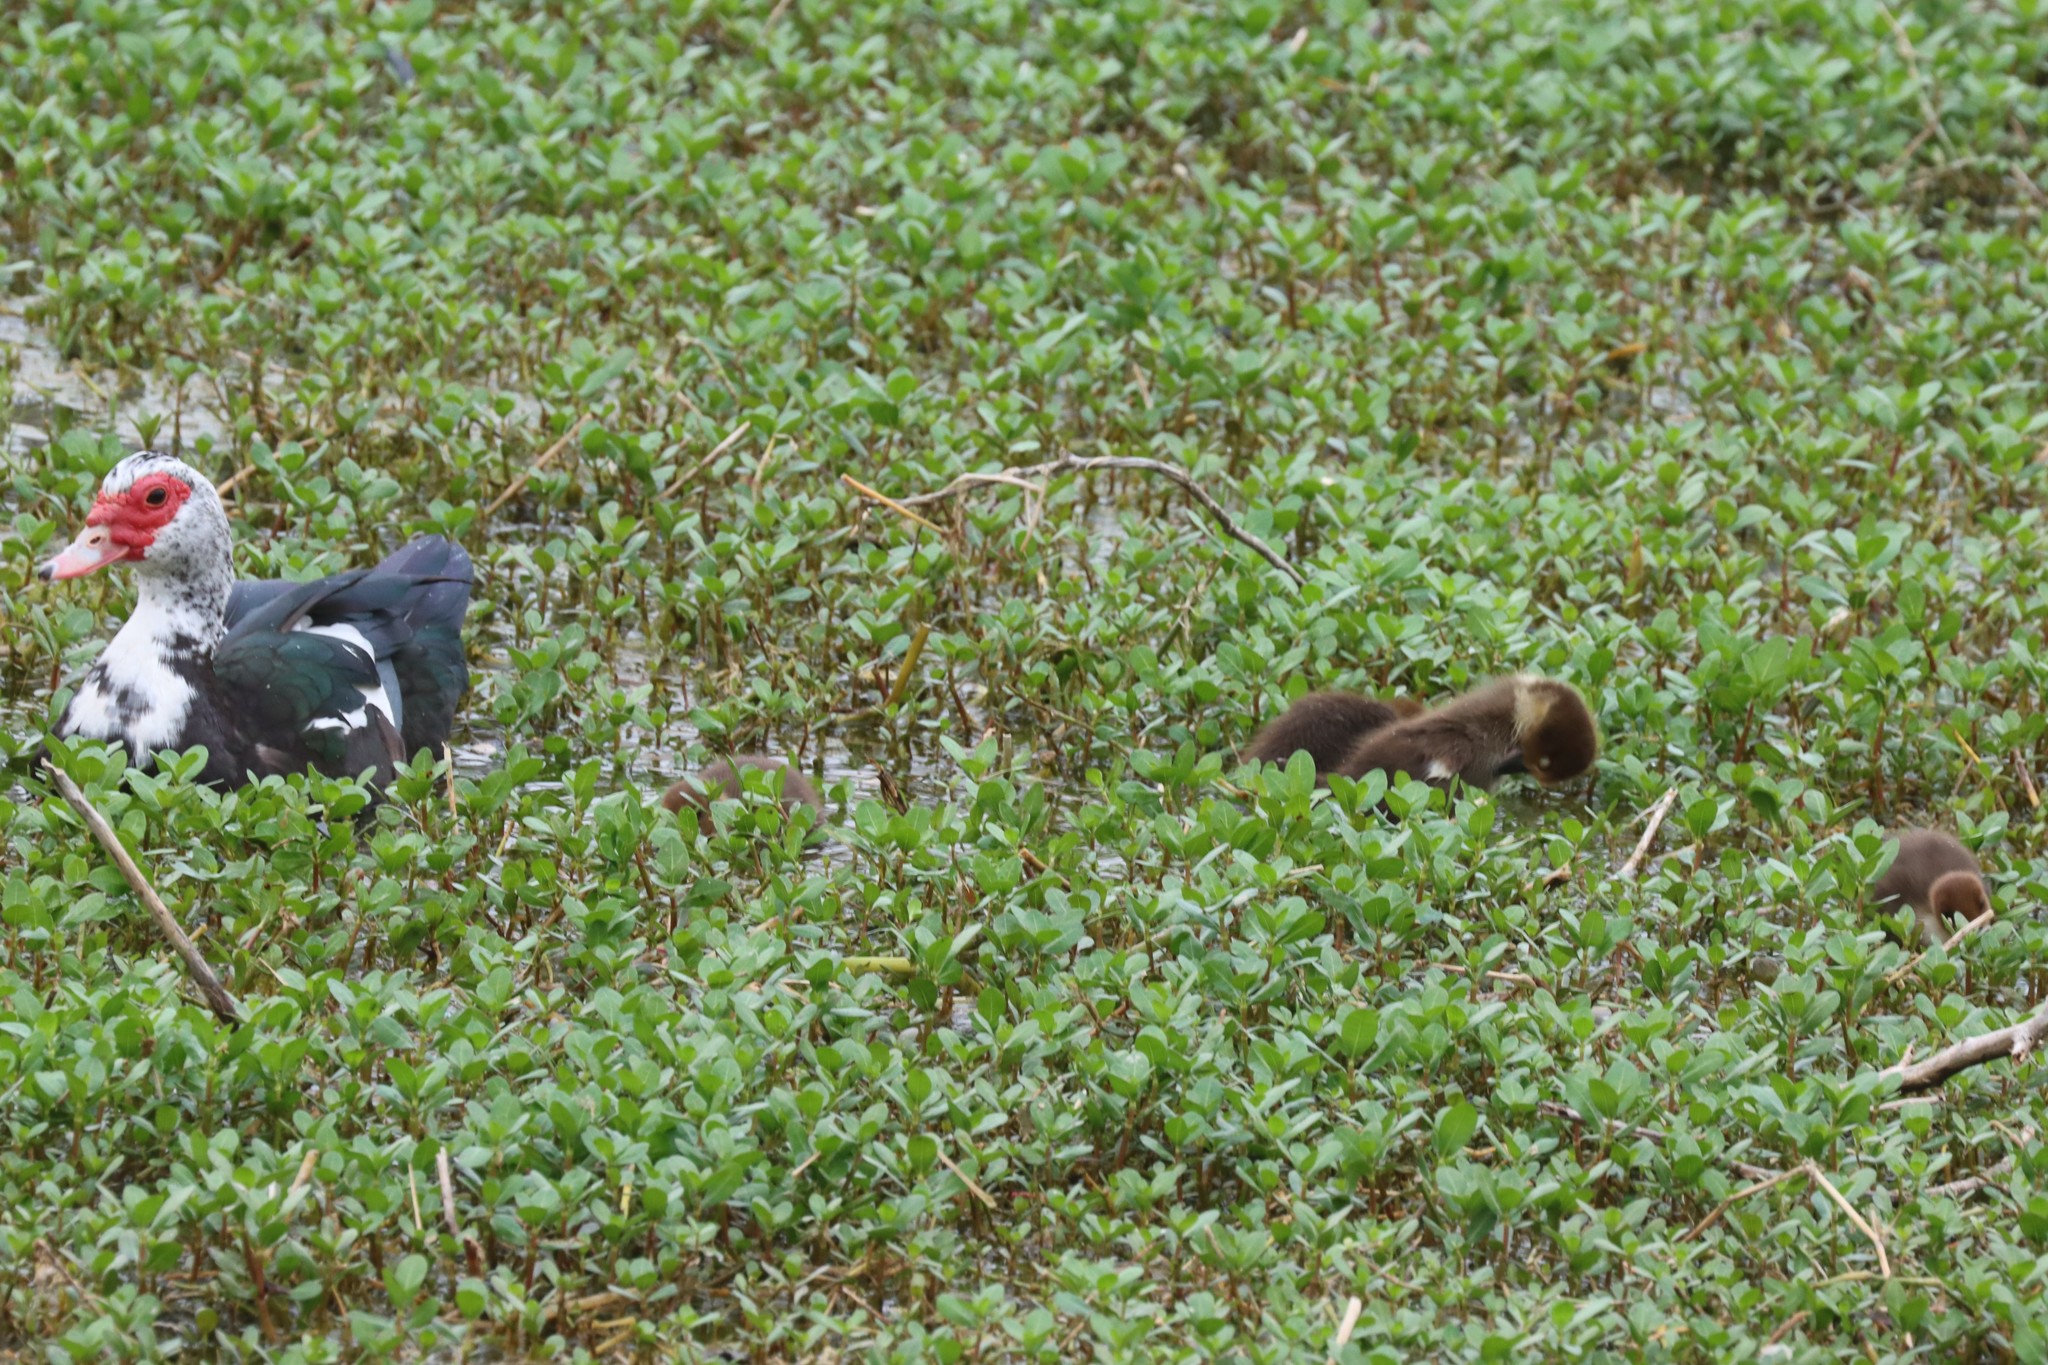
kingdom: Animalia
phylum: Chordata
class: Aves
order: Anseriformes
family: Anatidae
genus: Cairina
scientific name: Cairina moschata
